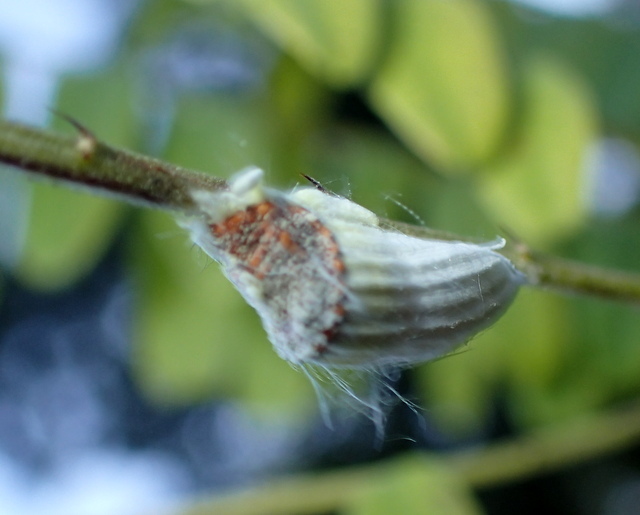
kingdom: Animalia
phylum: Arthropoda
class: Insecta
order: Hemiptera
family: Margarodidae
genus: Icerya
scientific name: Icerya purchasi
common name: Cottony cushion scale
